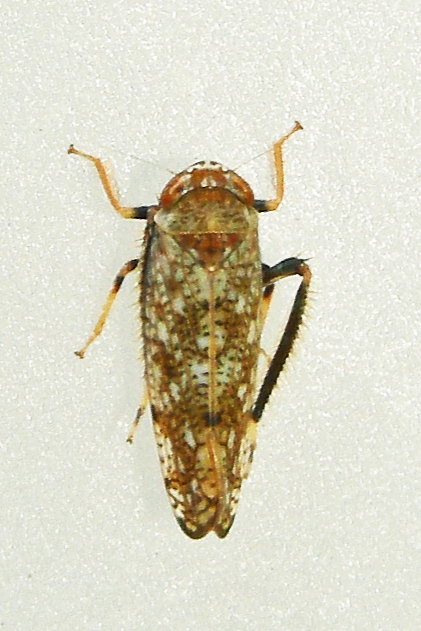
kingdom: Animalia
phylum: Arthropoda
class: Insecta
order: Hemiptera
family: Cicadellidae
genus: Orientus
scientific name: Orientus ishidae
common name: Japanese leafhopper
